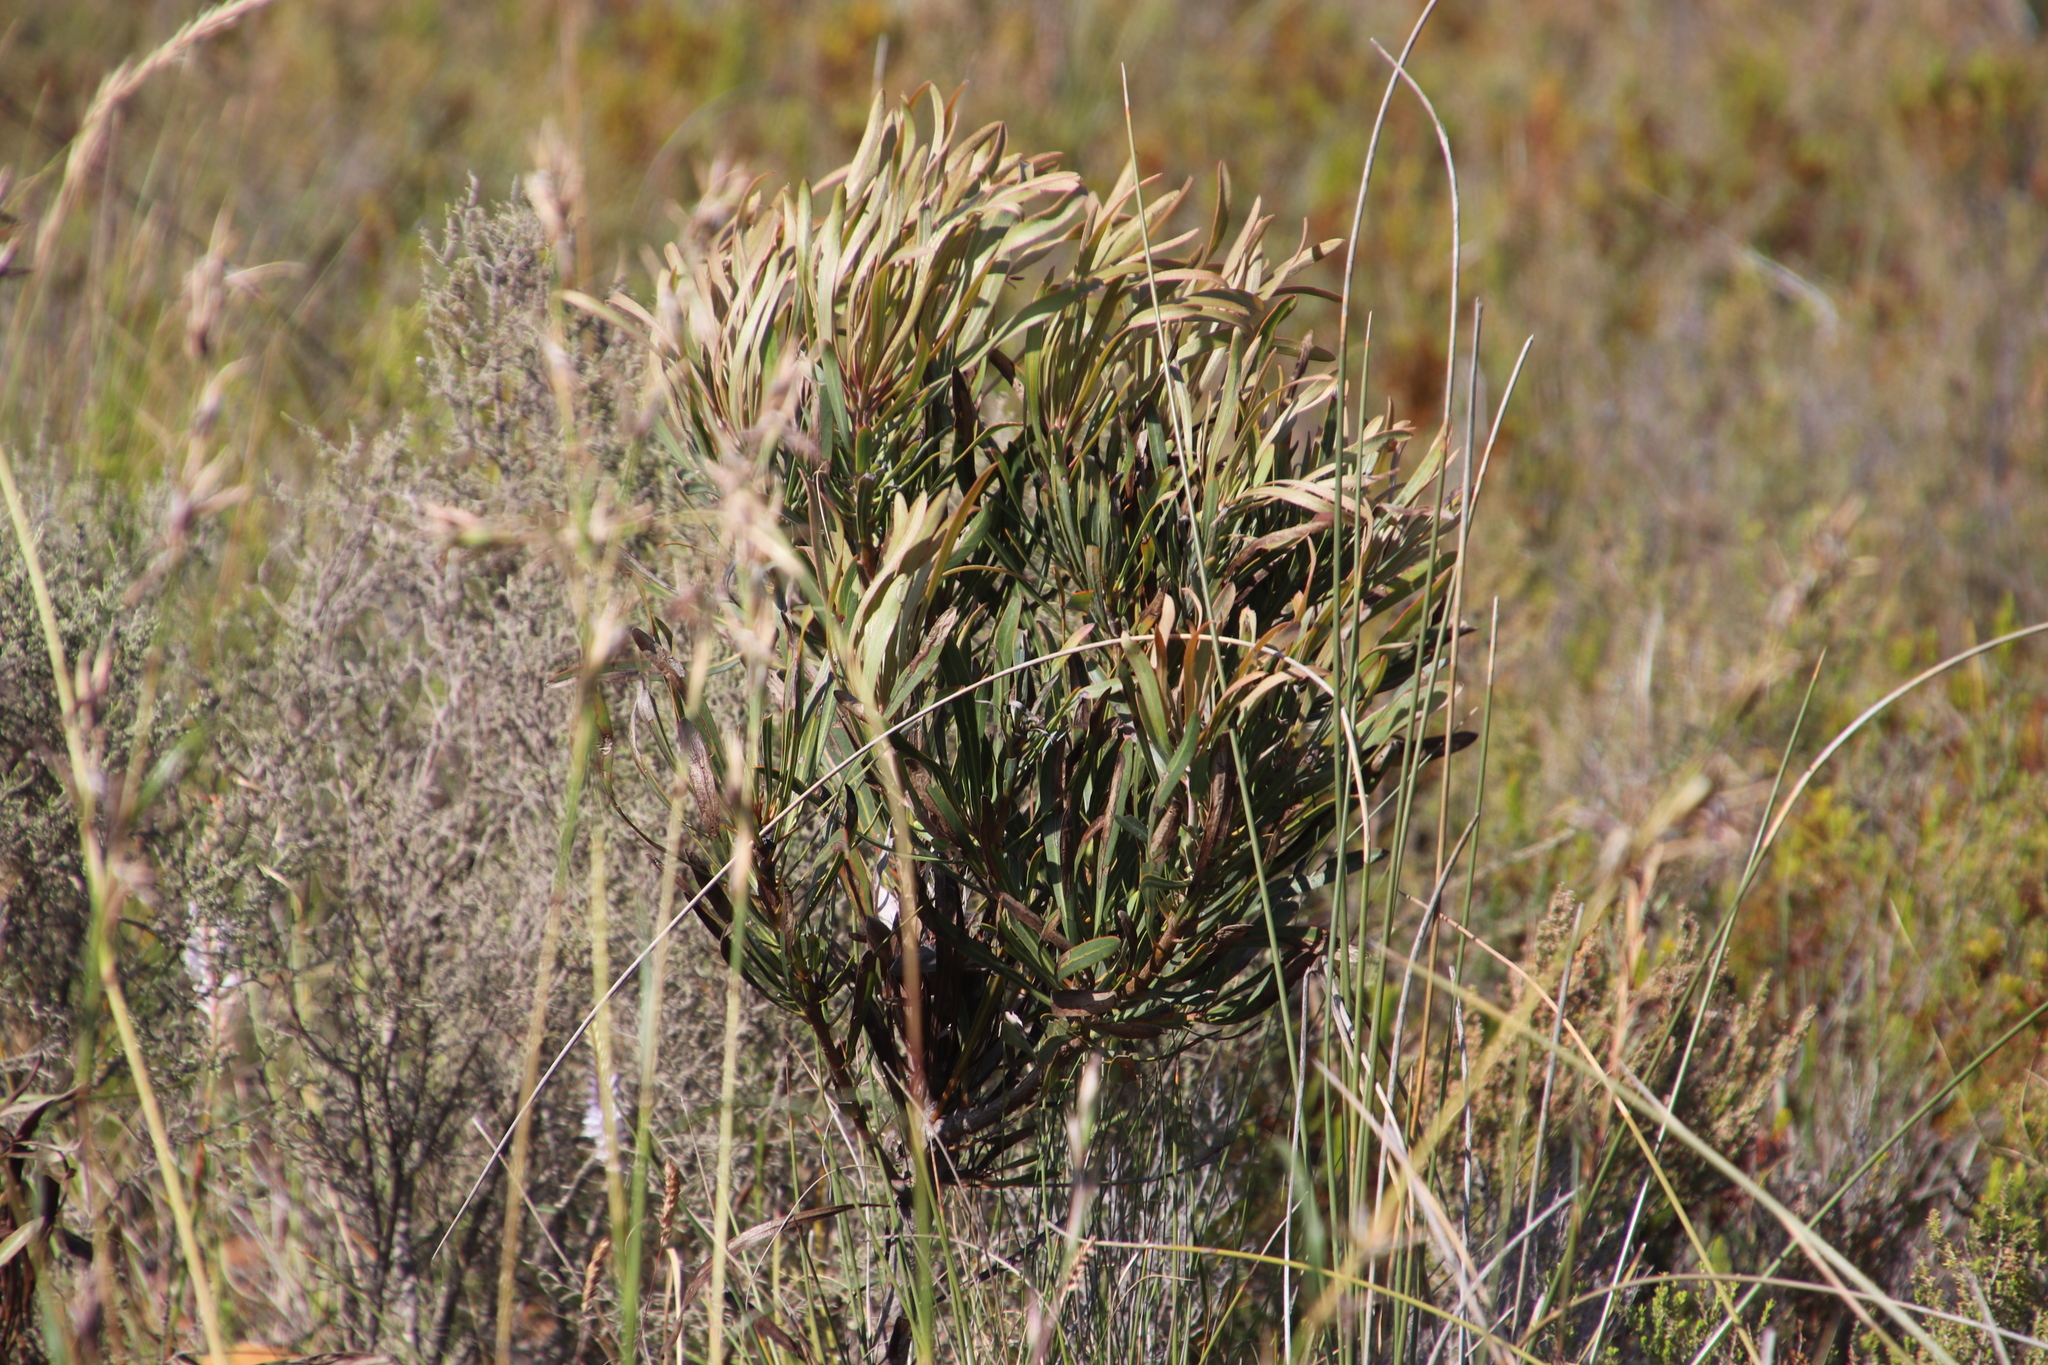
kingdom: Plantae
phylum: Tracheophyta
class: Magnoliopsida
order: Proteales
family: Proteaceae
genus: Protea
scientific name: Protea longifolia
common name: Long-leaf sugarbush
